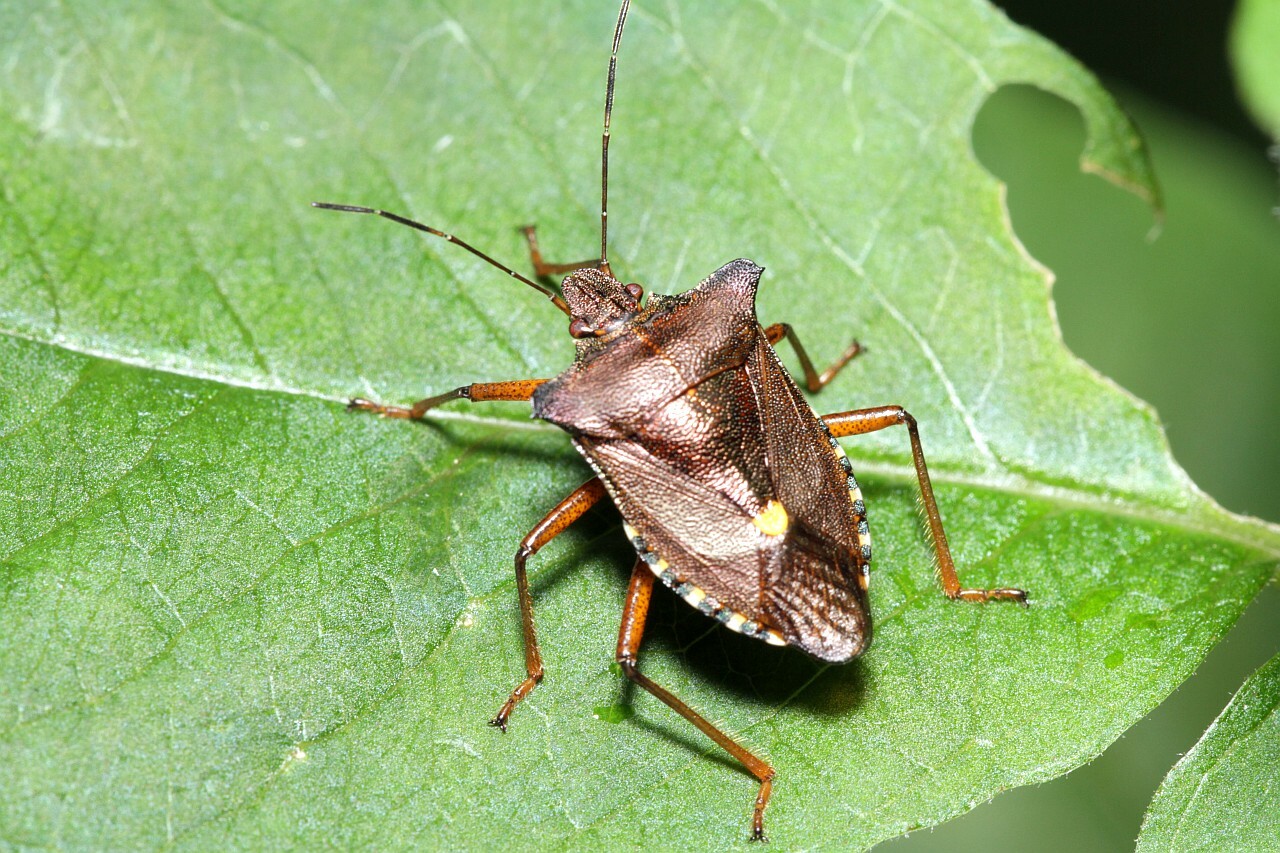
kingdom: Animalia
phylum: Arthropoda
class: Insecta
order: Hemiptera
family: Pentatomidae
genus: Pentatoma
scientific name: Pentatoma rufipes
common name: Forest bug
